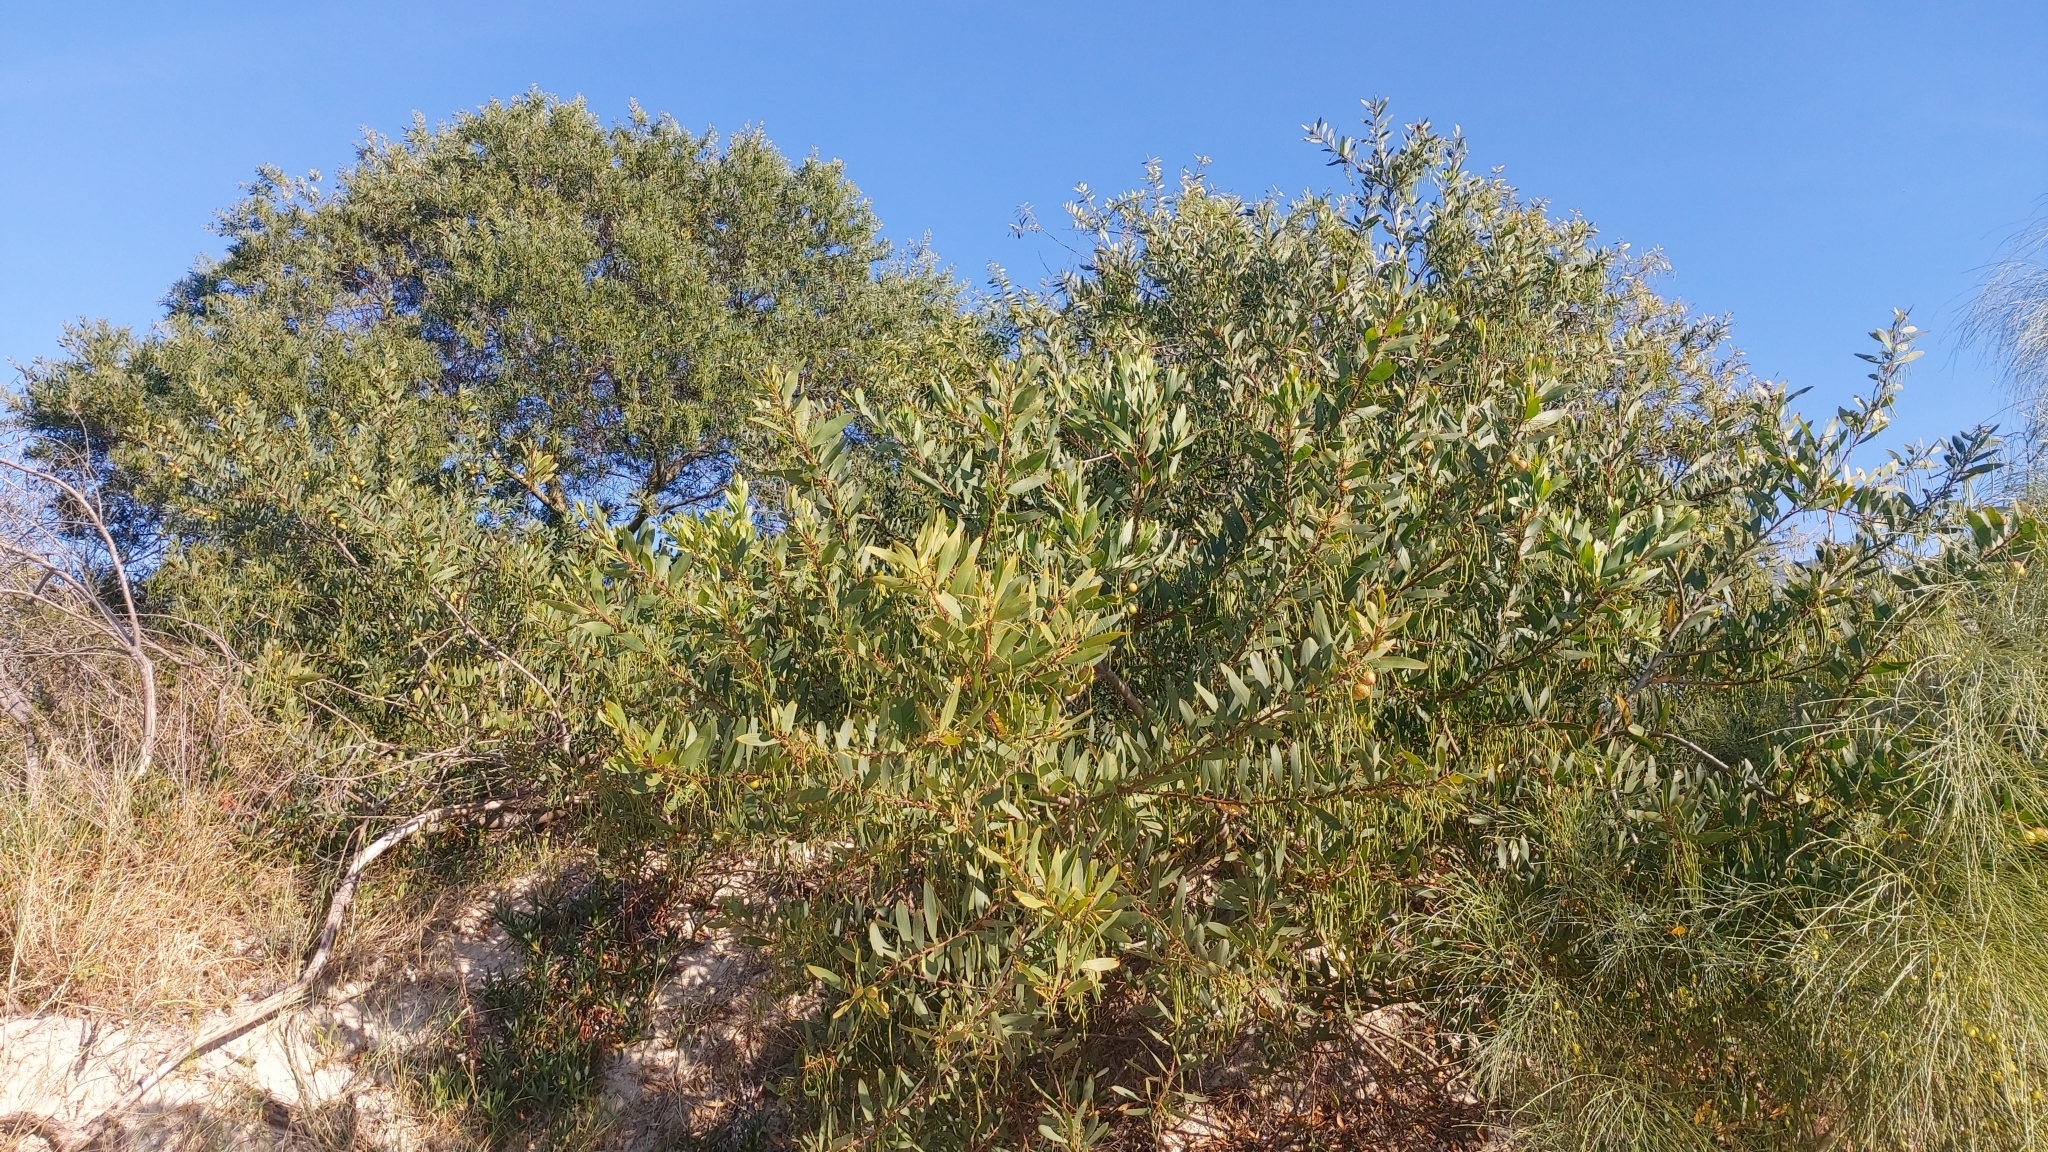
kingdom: Animalia
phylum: Arthropoda
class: Insecta
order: Hymenoptera
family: Pteromalidae
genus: Trichilogaster
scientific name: Trichilogaster acaciaelongifoliae
